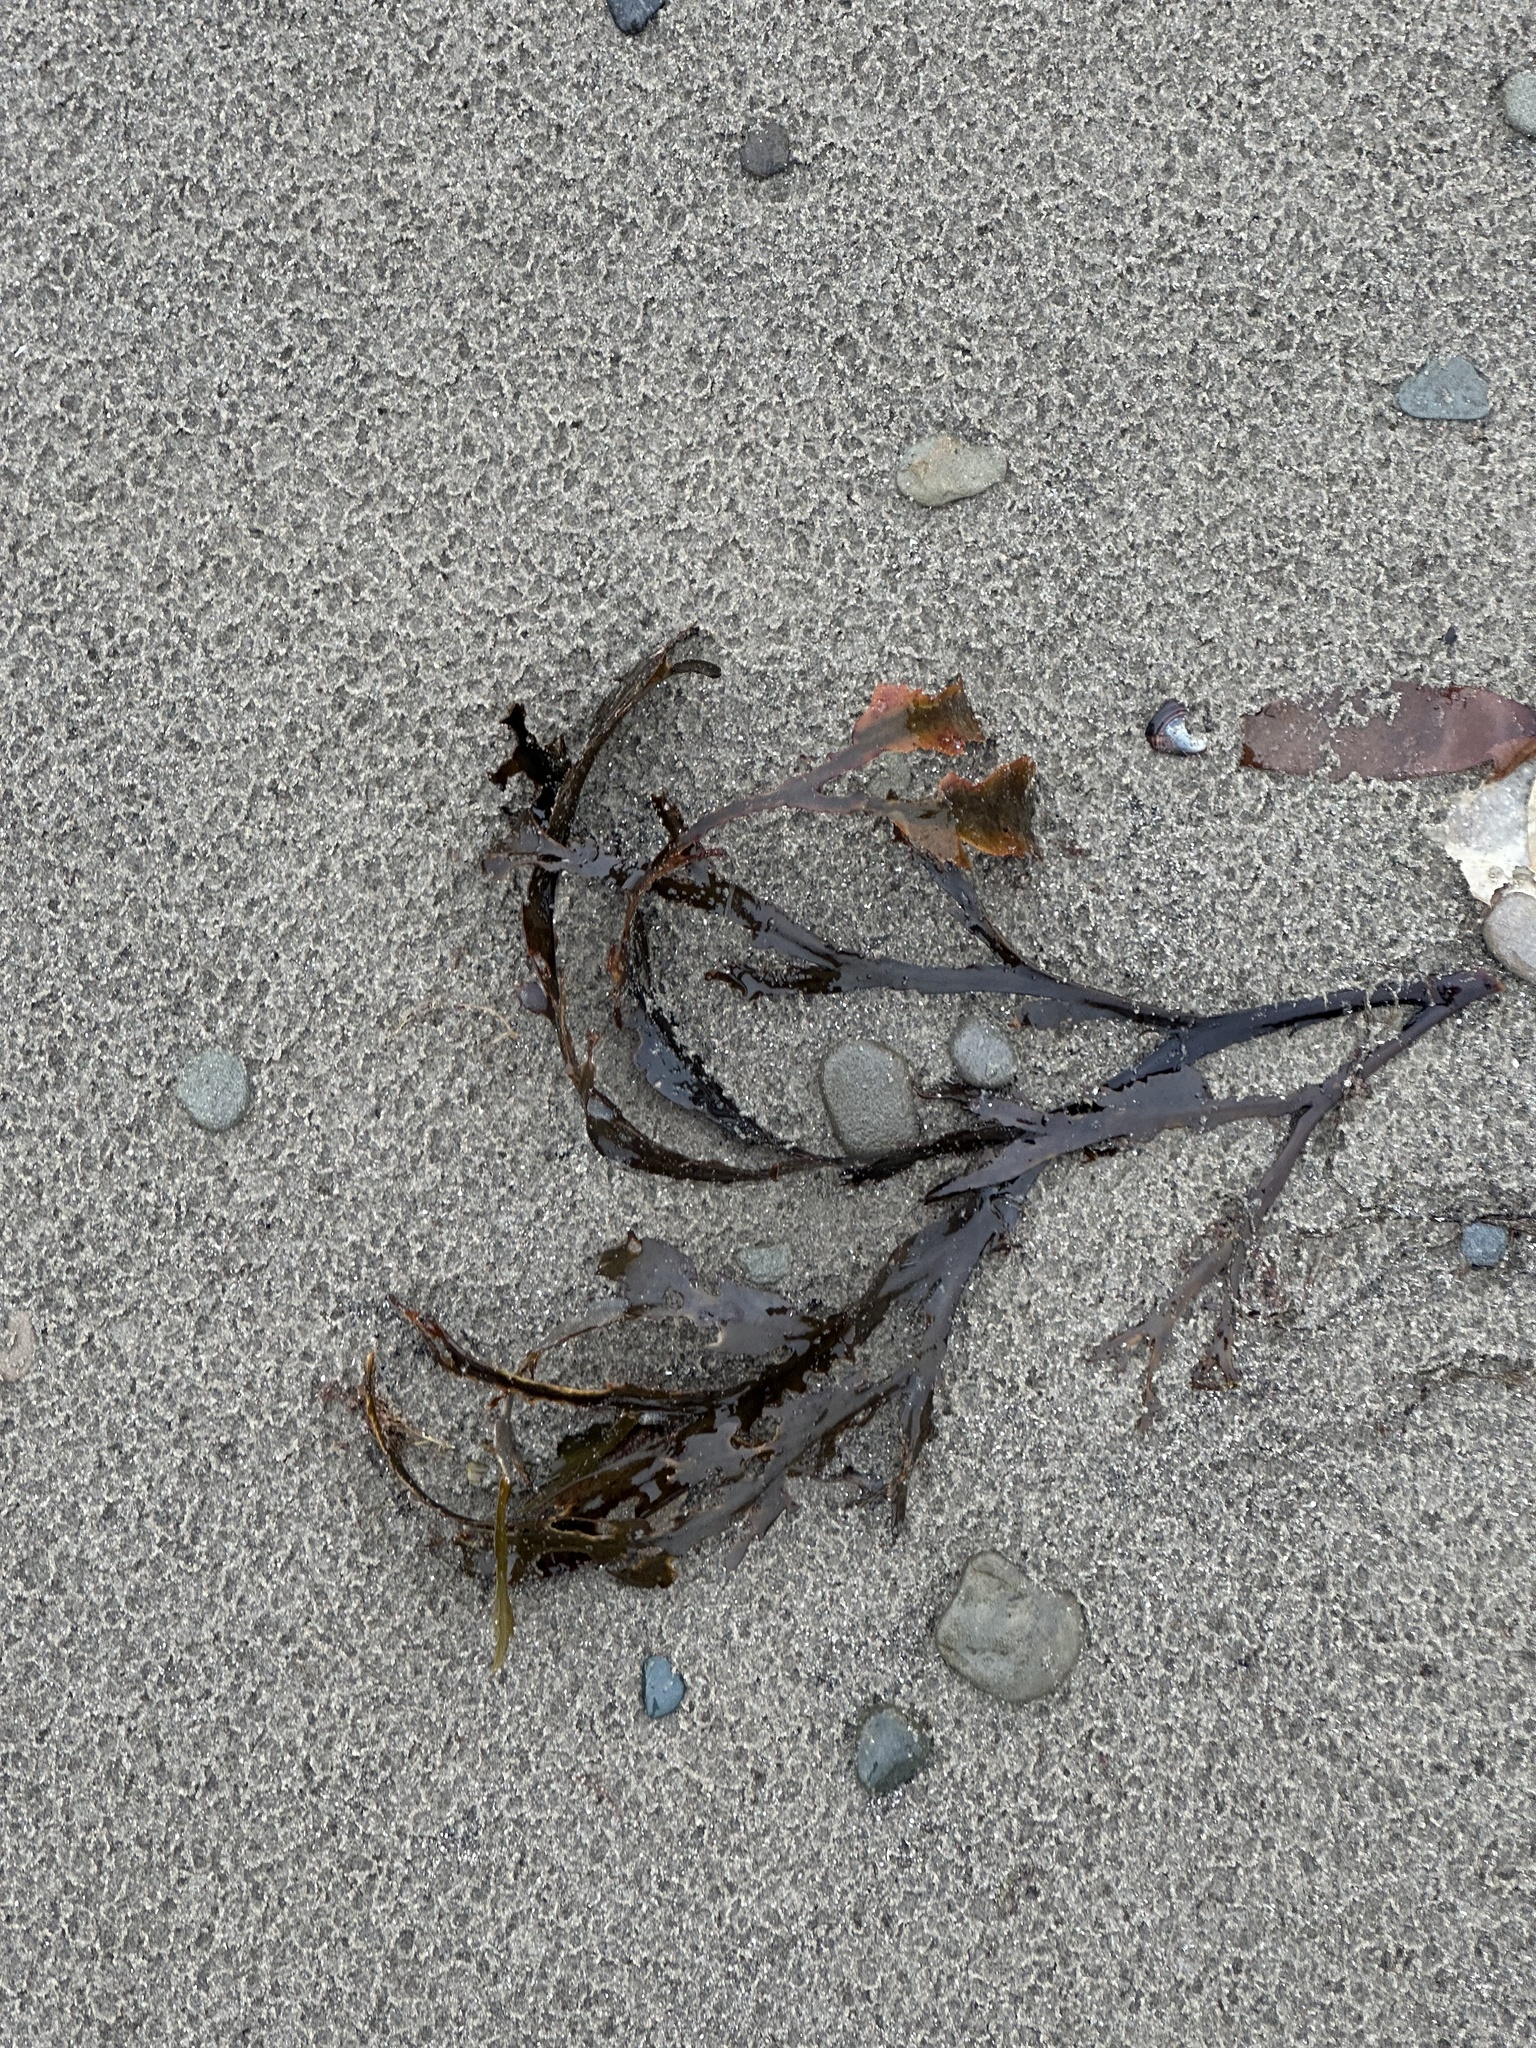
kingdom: Chromista
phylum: Ochrophyta
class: Phaeophyceae
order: Fucales
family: Fucaceae
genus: Fucus
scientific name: Fucus serratus
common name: Toothed wrack
